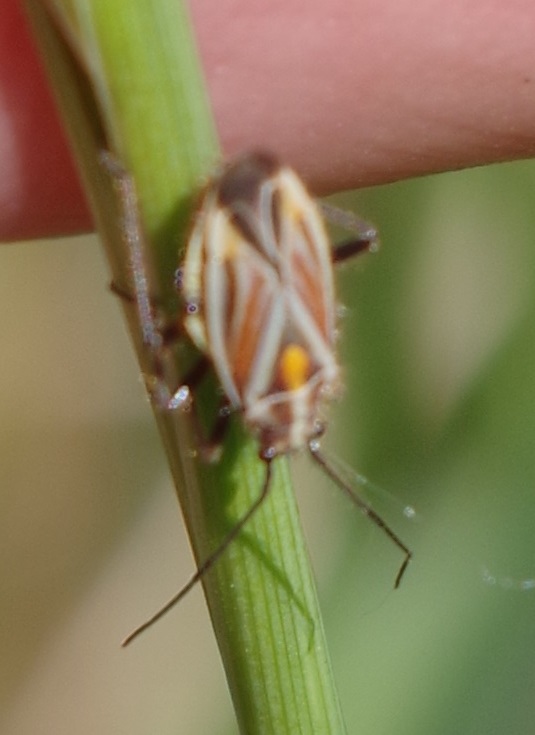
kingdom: Animalia
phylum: Arthropoda
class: Insecta
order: Hemiptera
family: Miridae
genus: Horistus
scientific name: Horistus orientalis
